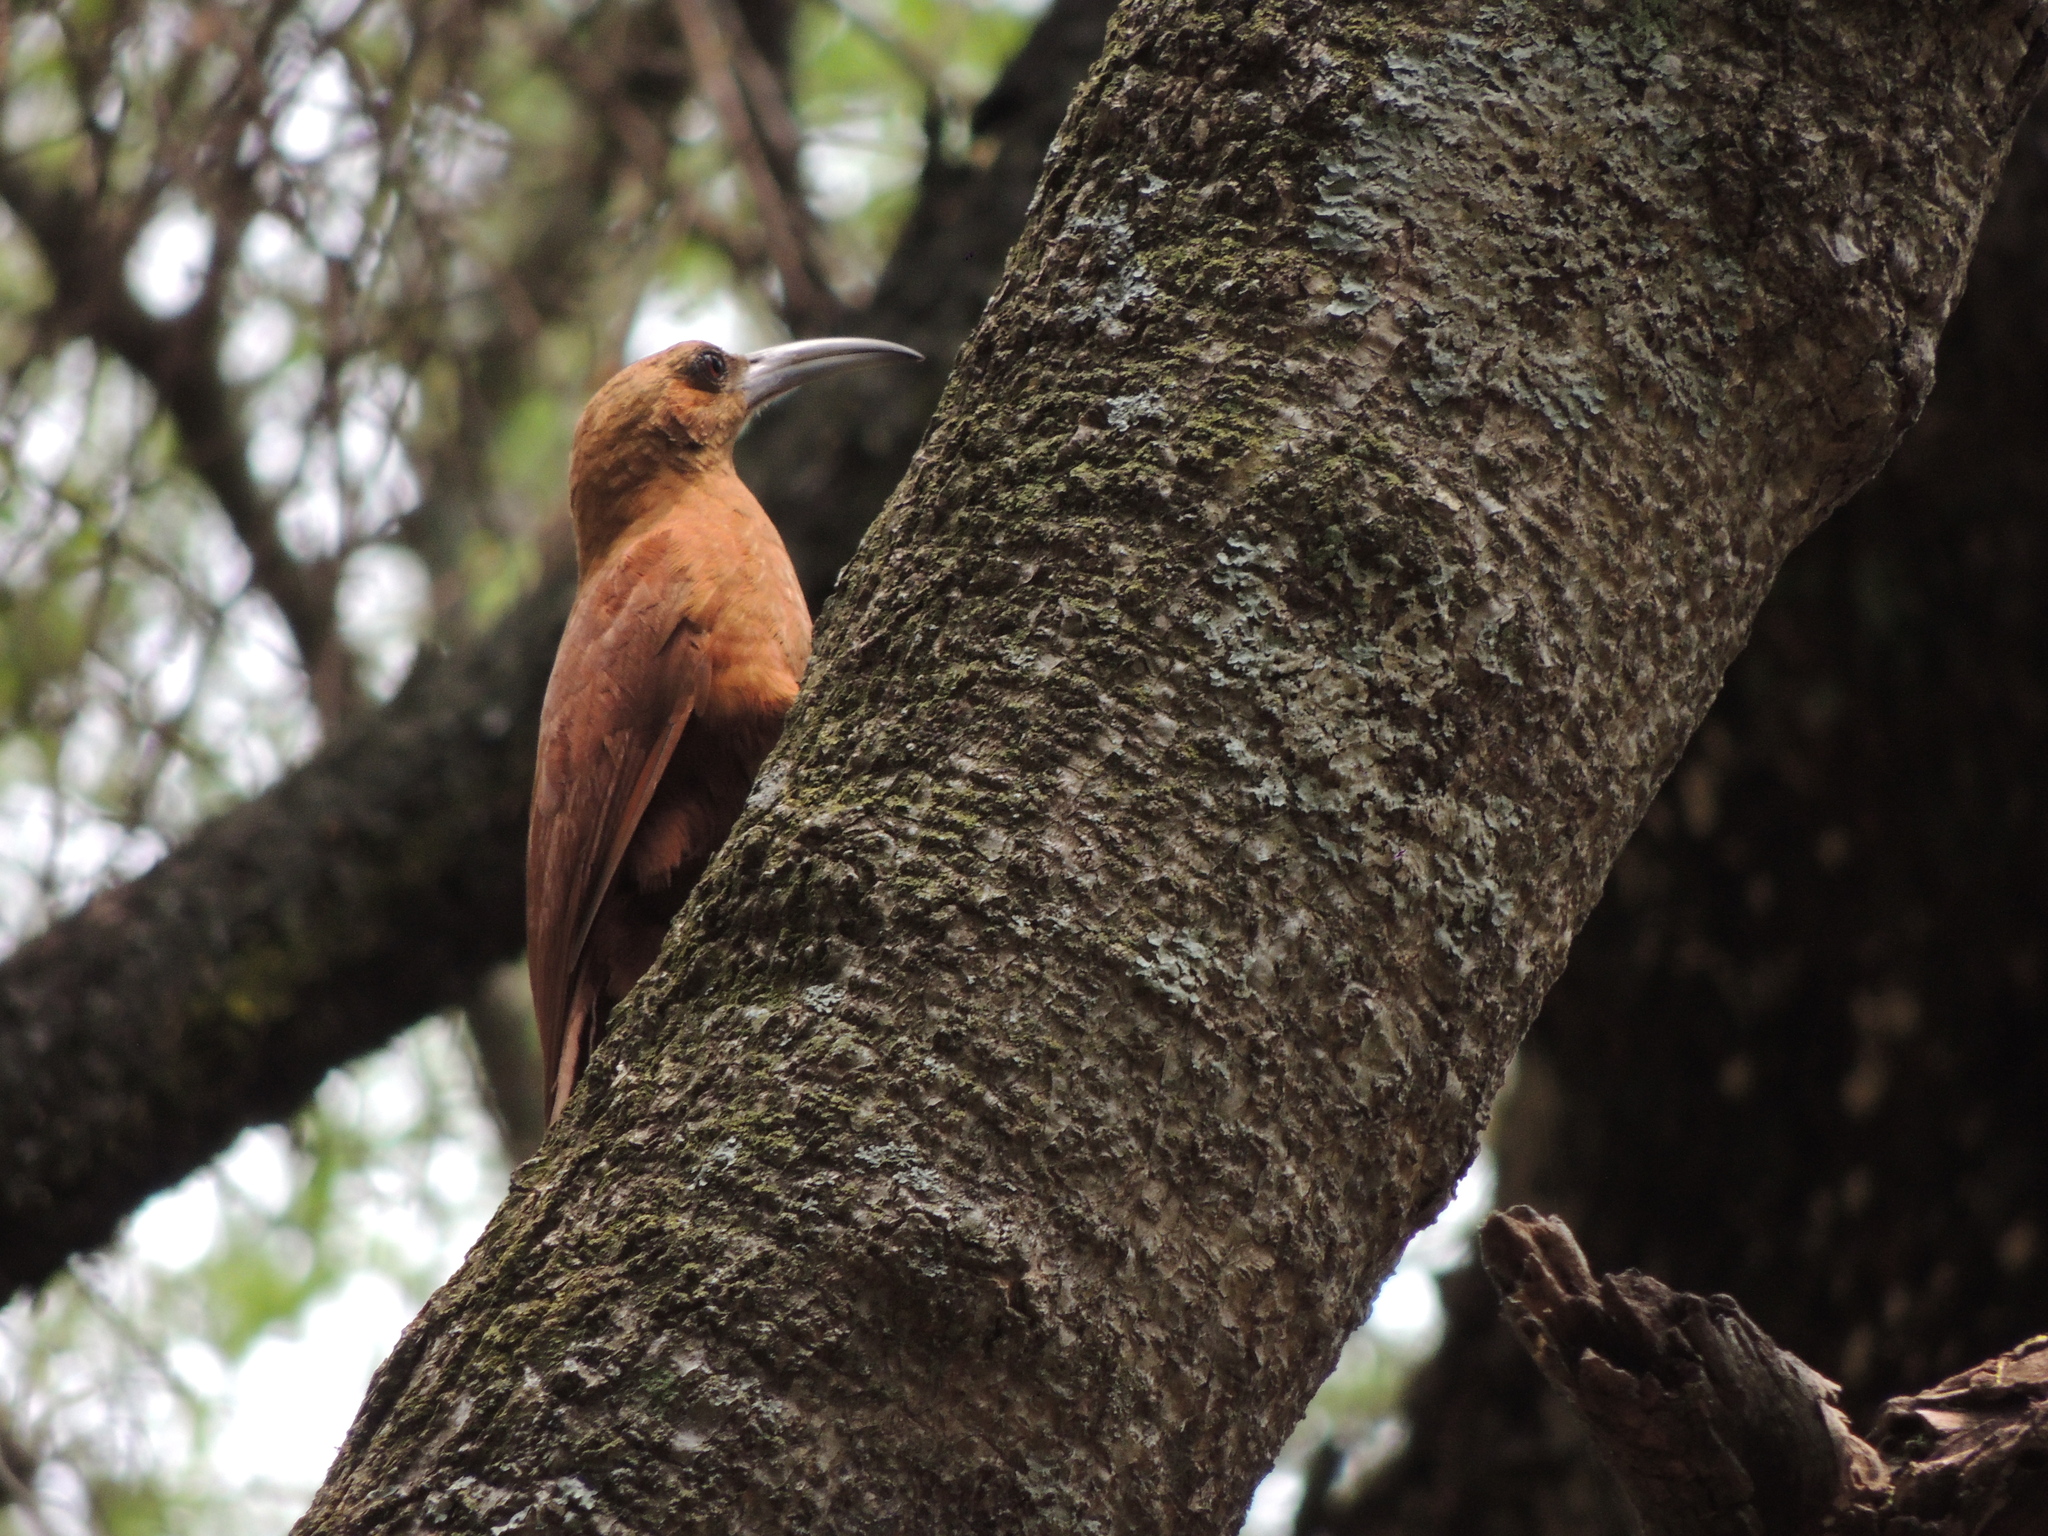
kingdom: Animalia
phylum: Chordata
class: Aves
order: Passeriformes
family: Furnariidae
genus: Xiphocolaptes
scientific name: Xiphocolaptes major
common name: Great rufous woodcreeper
